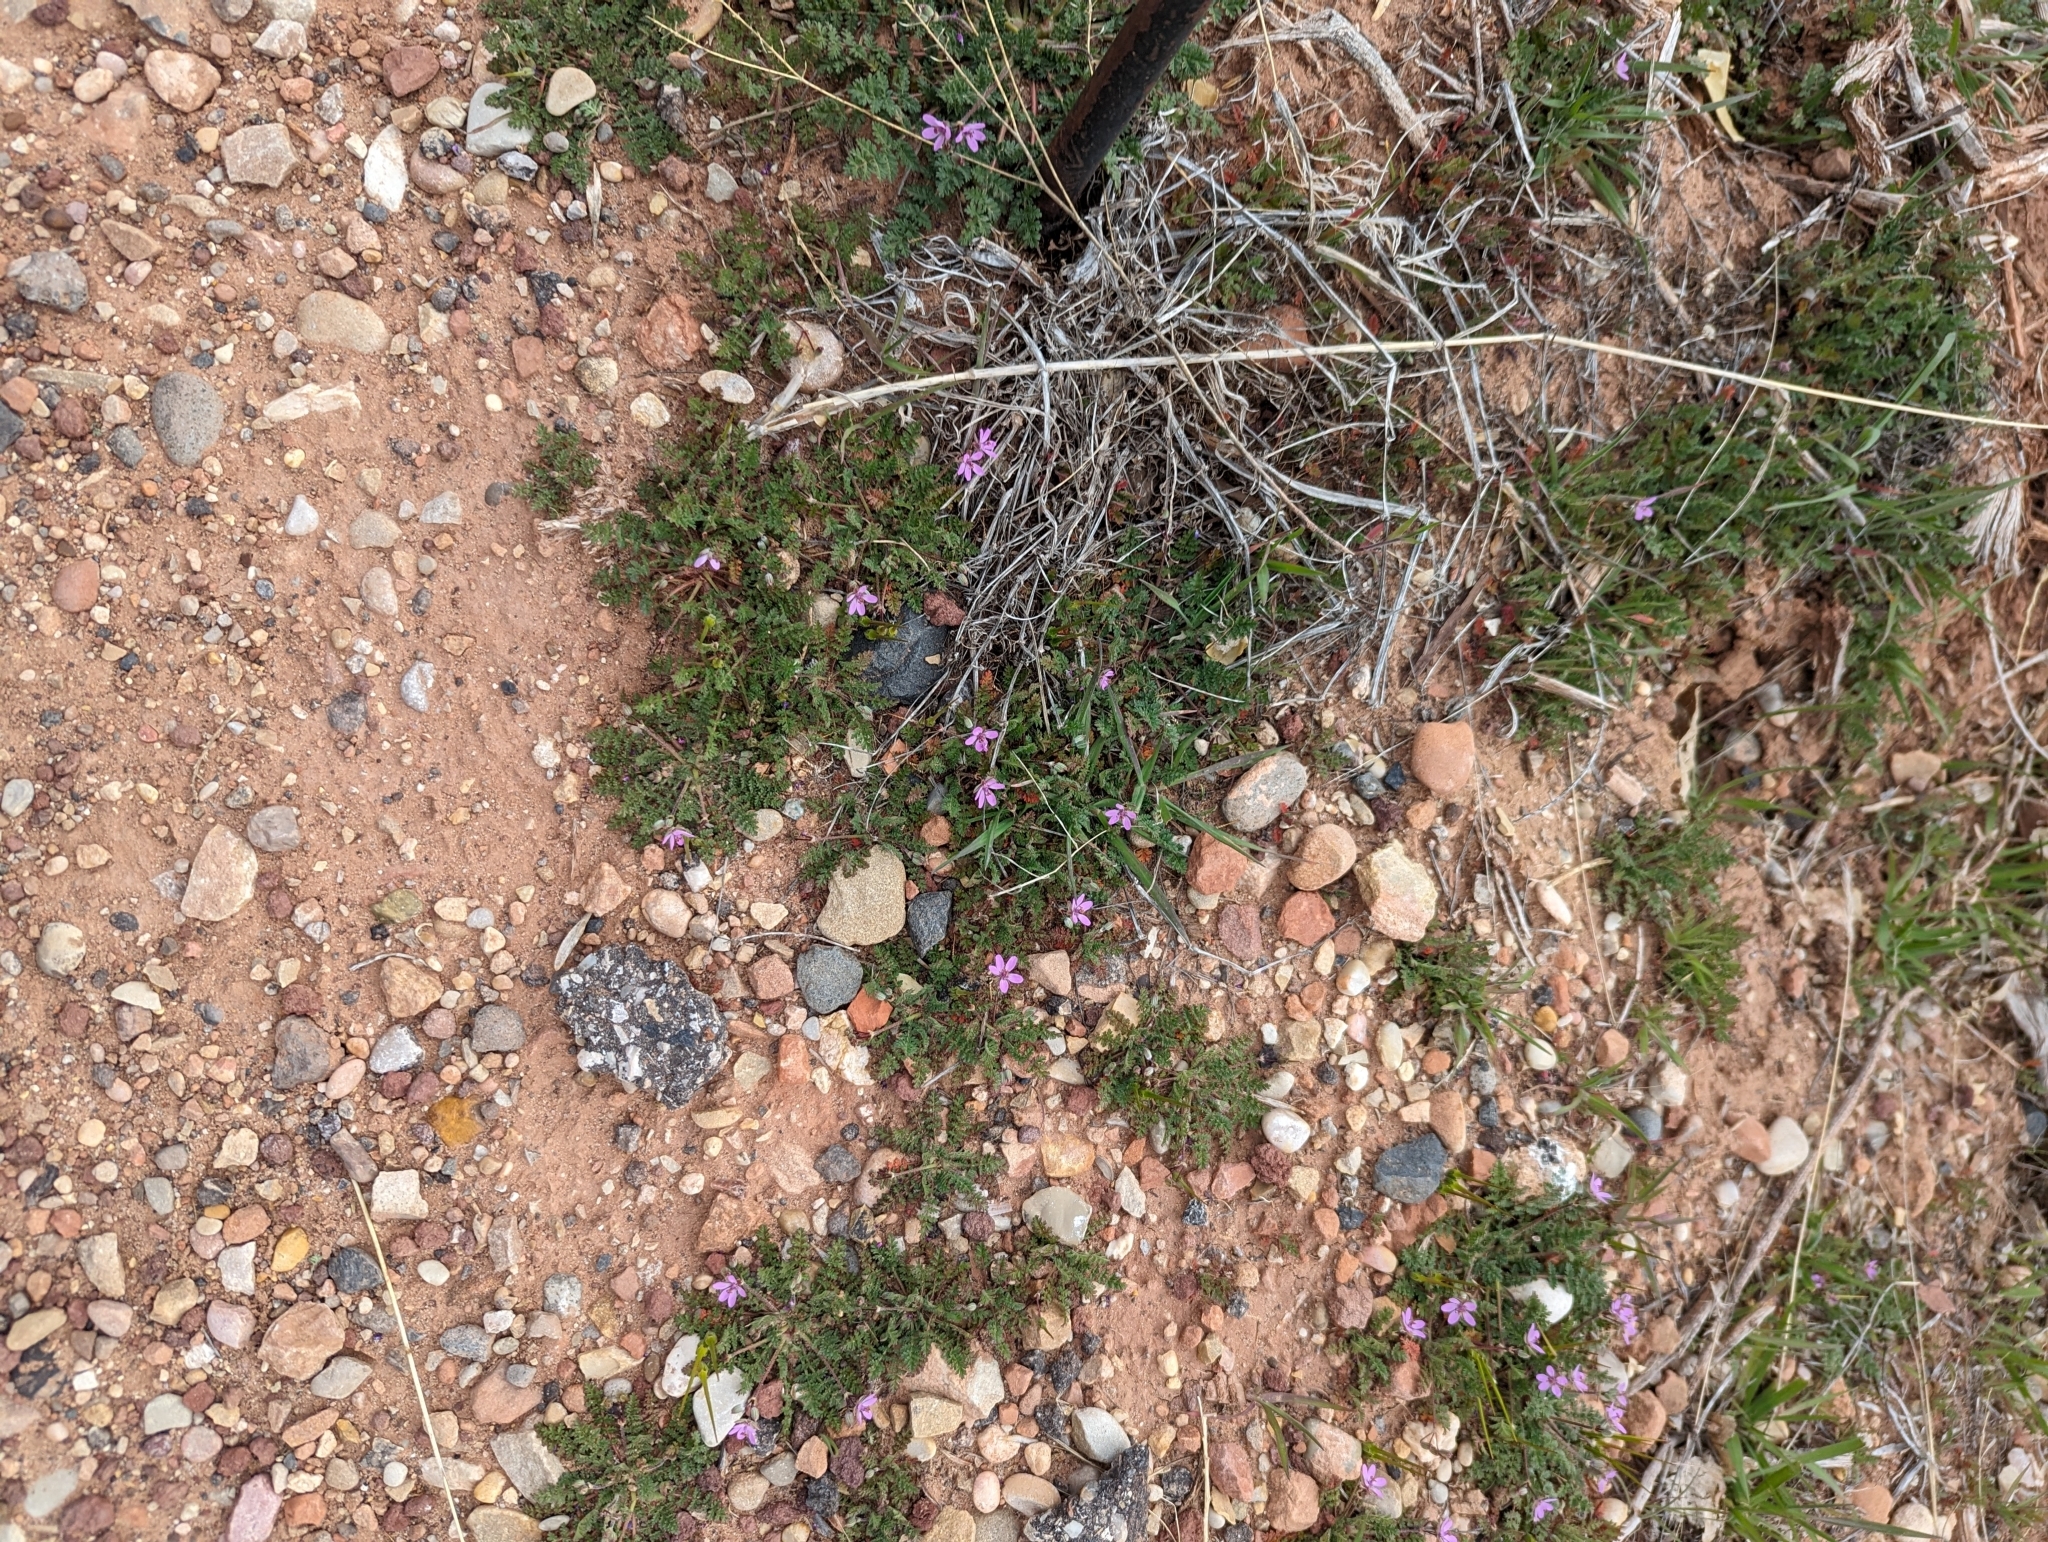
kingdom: Plantae
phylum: Tracheophyta
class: Magnoliopsida
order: Geraniales
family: Geraniaceae
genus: Erodium
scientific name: Erodium cicutarium
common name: Common stork's-bill
